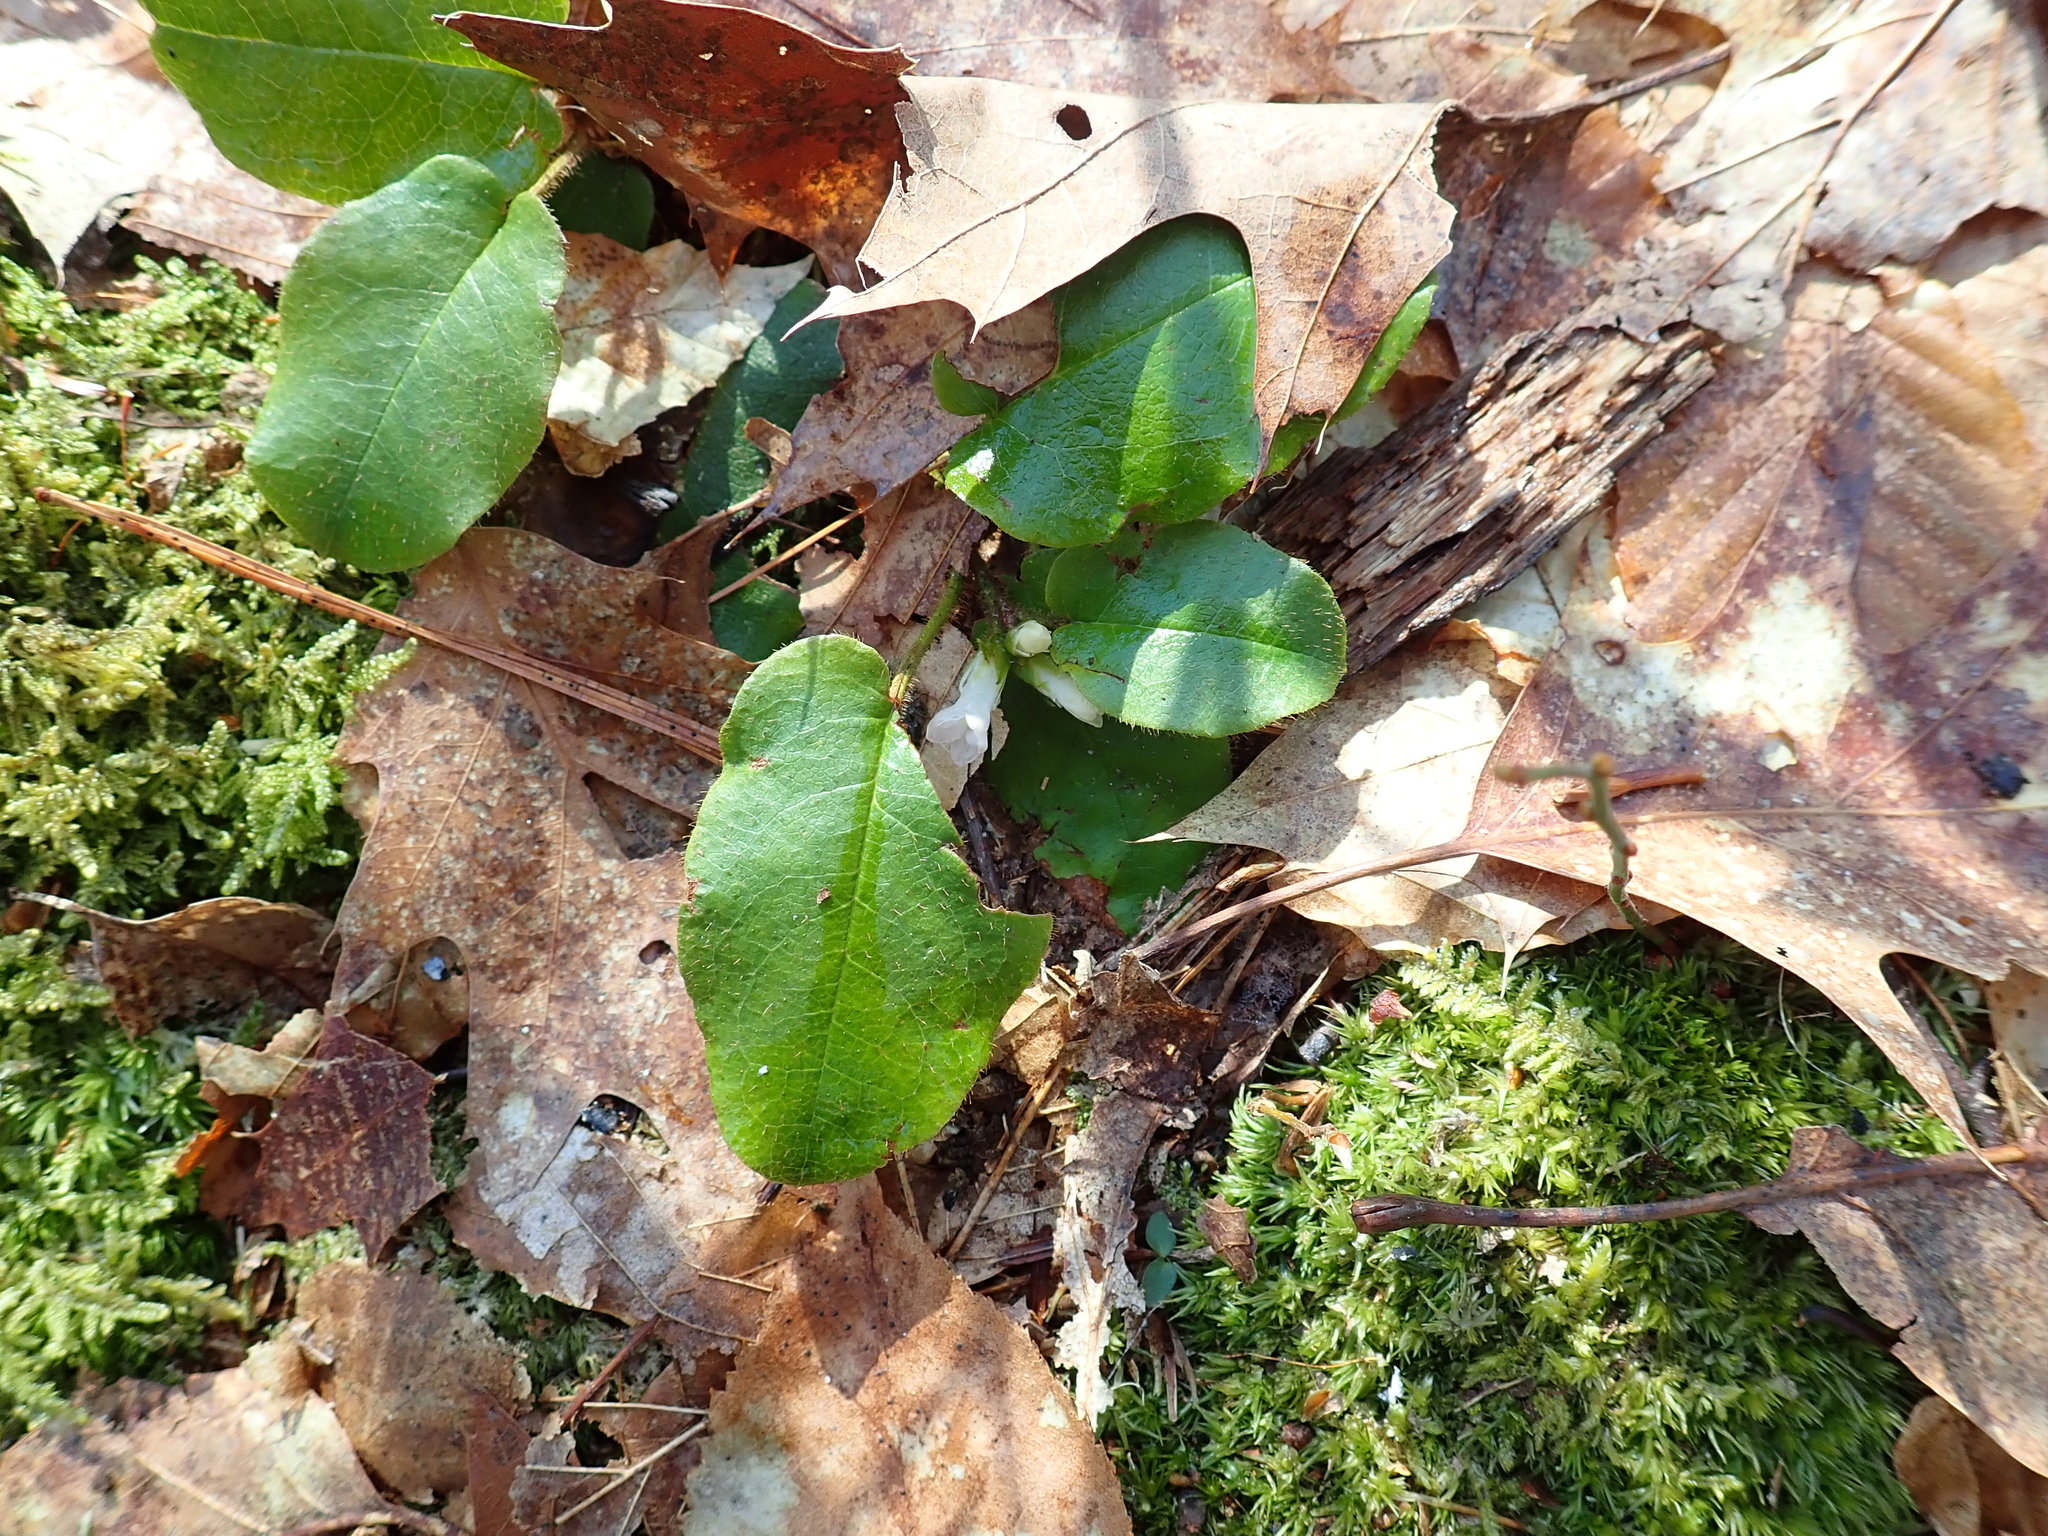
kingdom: Plantae
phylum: Tracheophyta
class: Magnoliopsida
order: Ericales
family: Ericaceae
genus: Epigaea
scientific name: Epigaea repens
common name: Gravelroot
